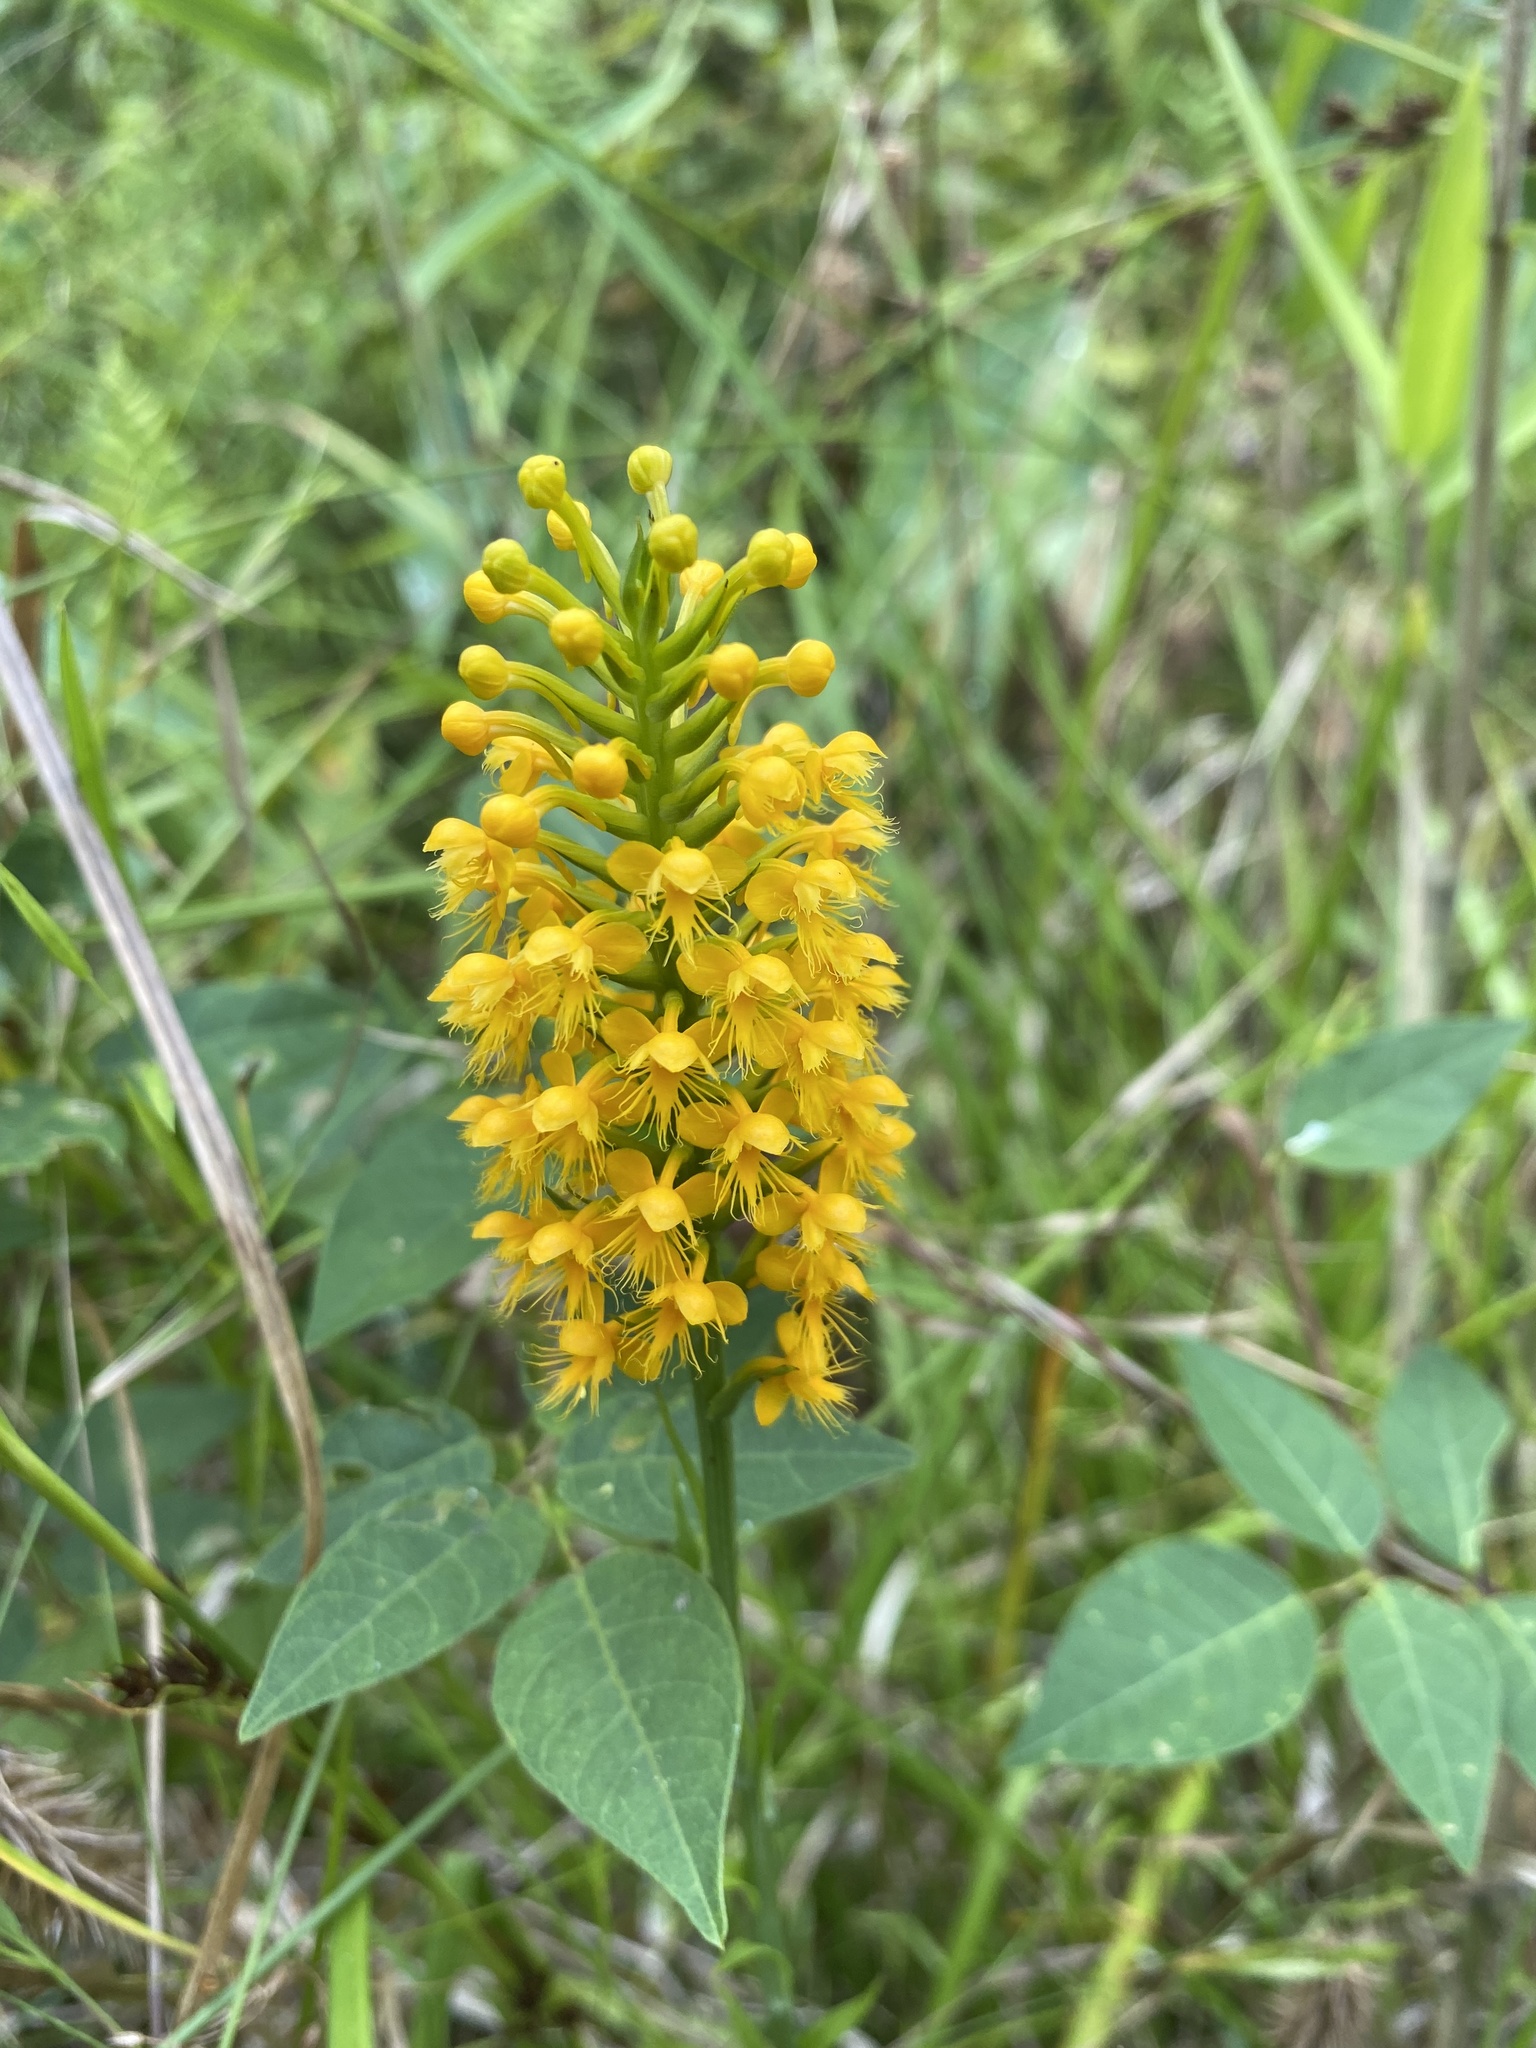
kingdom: Plantae
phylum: Tracheophyta
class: Liliopsida
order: Asparagales
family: Orchidaceae
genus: Platanthera
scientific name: Platanthera cristata
